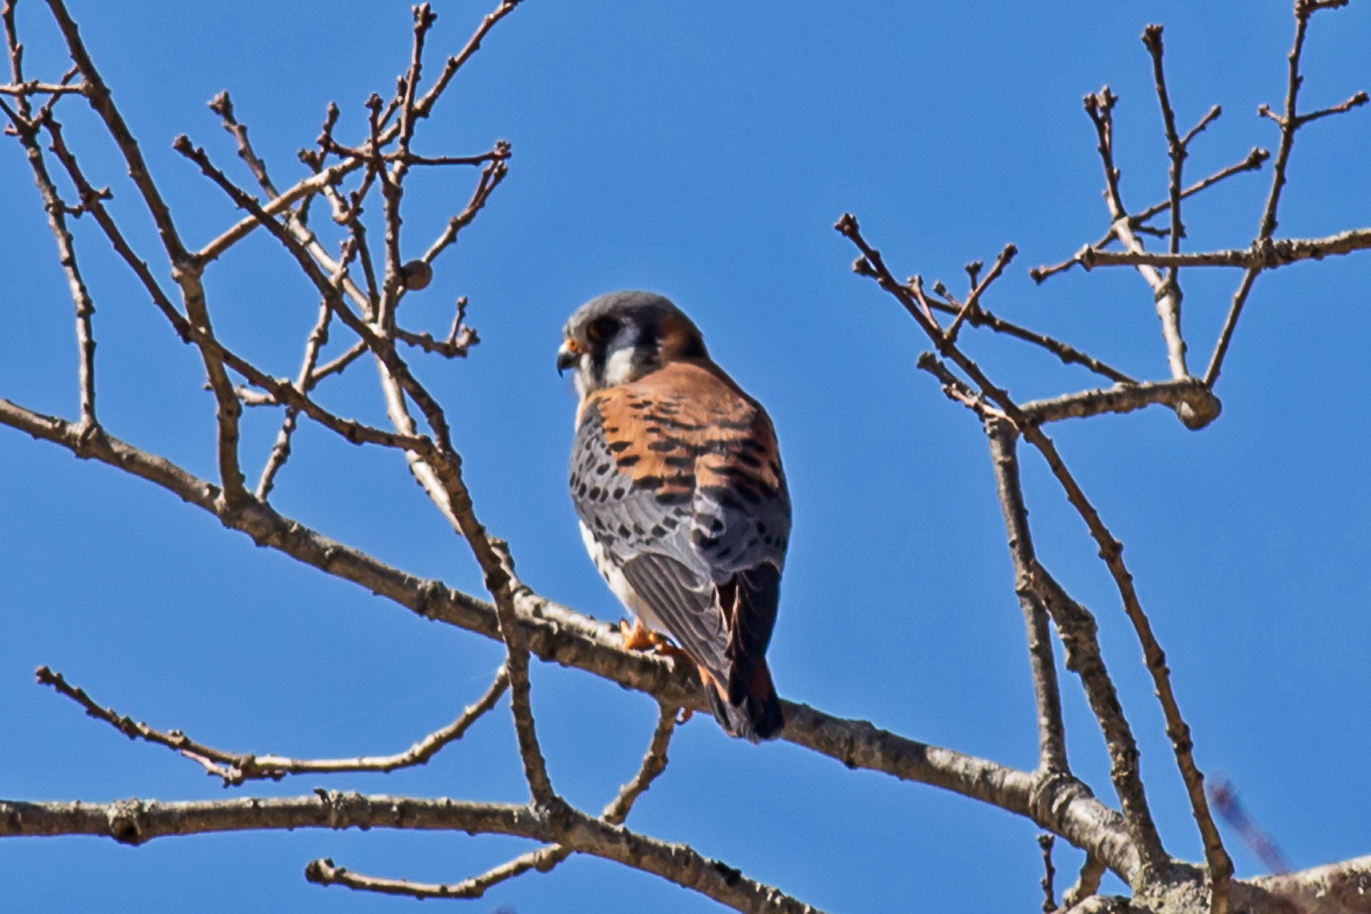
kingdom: Animalia
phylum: Chordata
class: Aves
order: Falconiformes
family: Falconidae
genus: Falco
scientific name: Falco sparverius
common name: American kestrel
